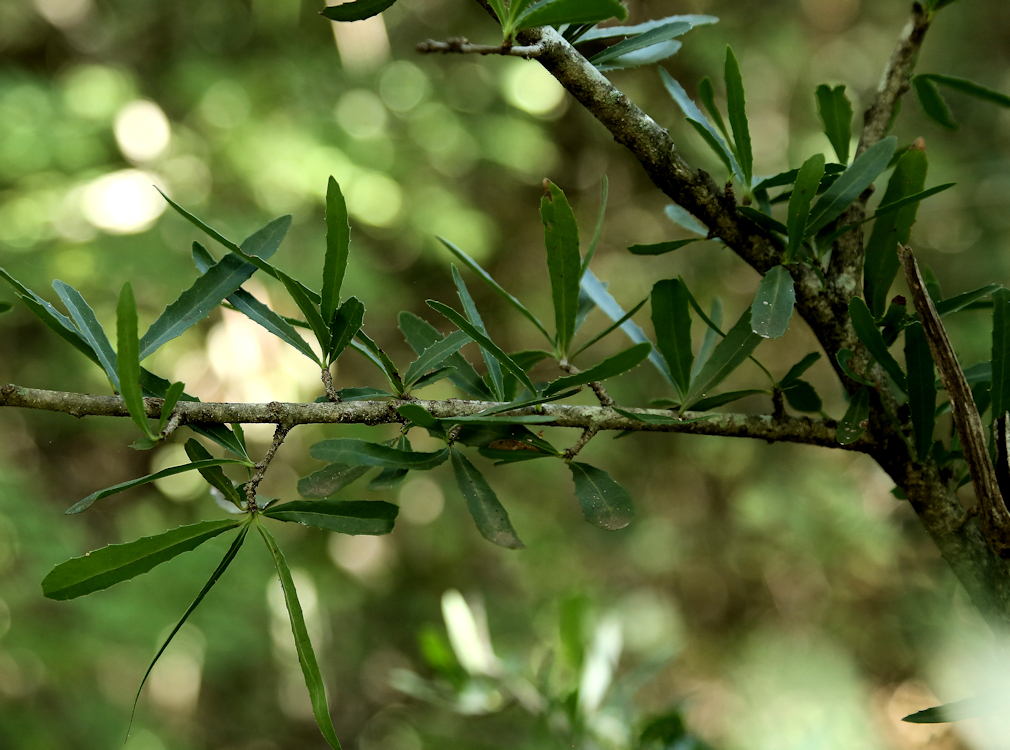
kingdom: Plantae
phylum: Tracheophyta
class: Magnoliopsida
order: Celastrales
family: Celastraceae
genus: Elaeodendron
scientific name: Elaeodendron transvaalense
